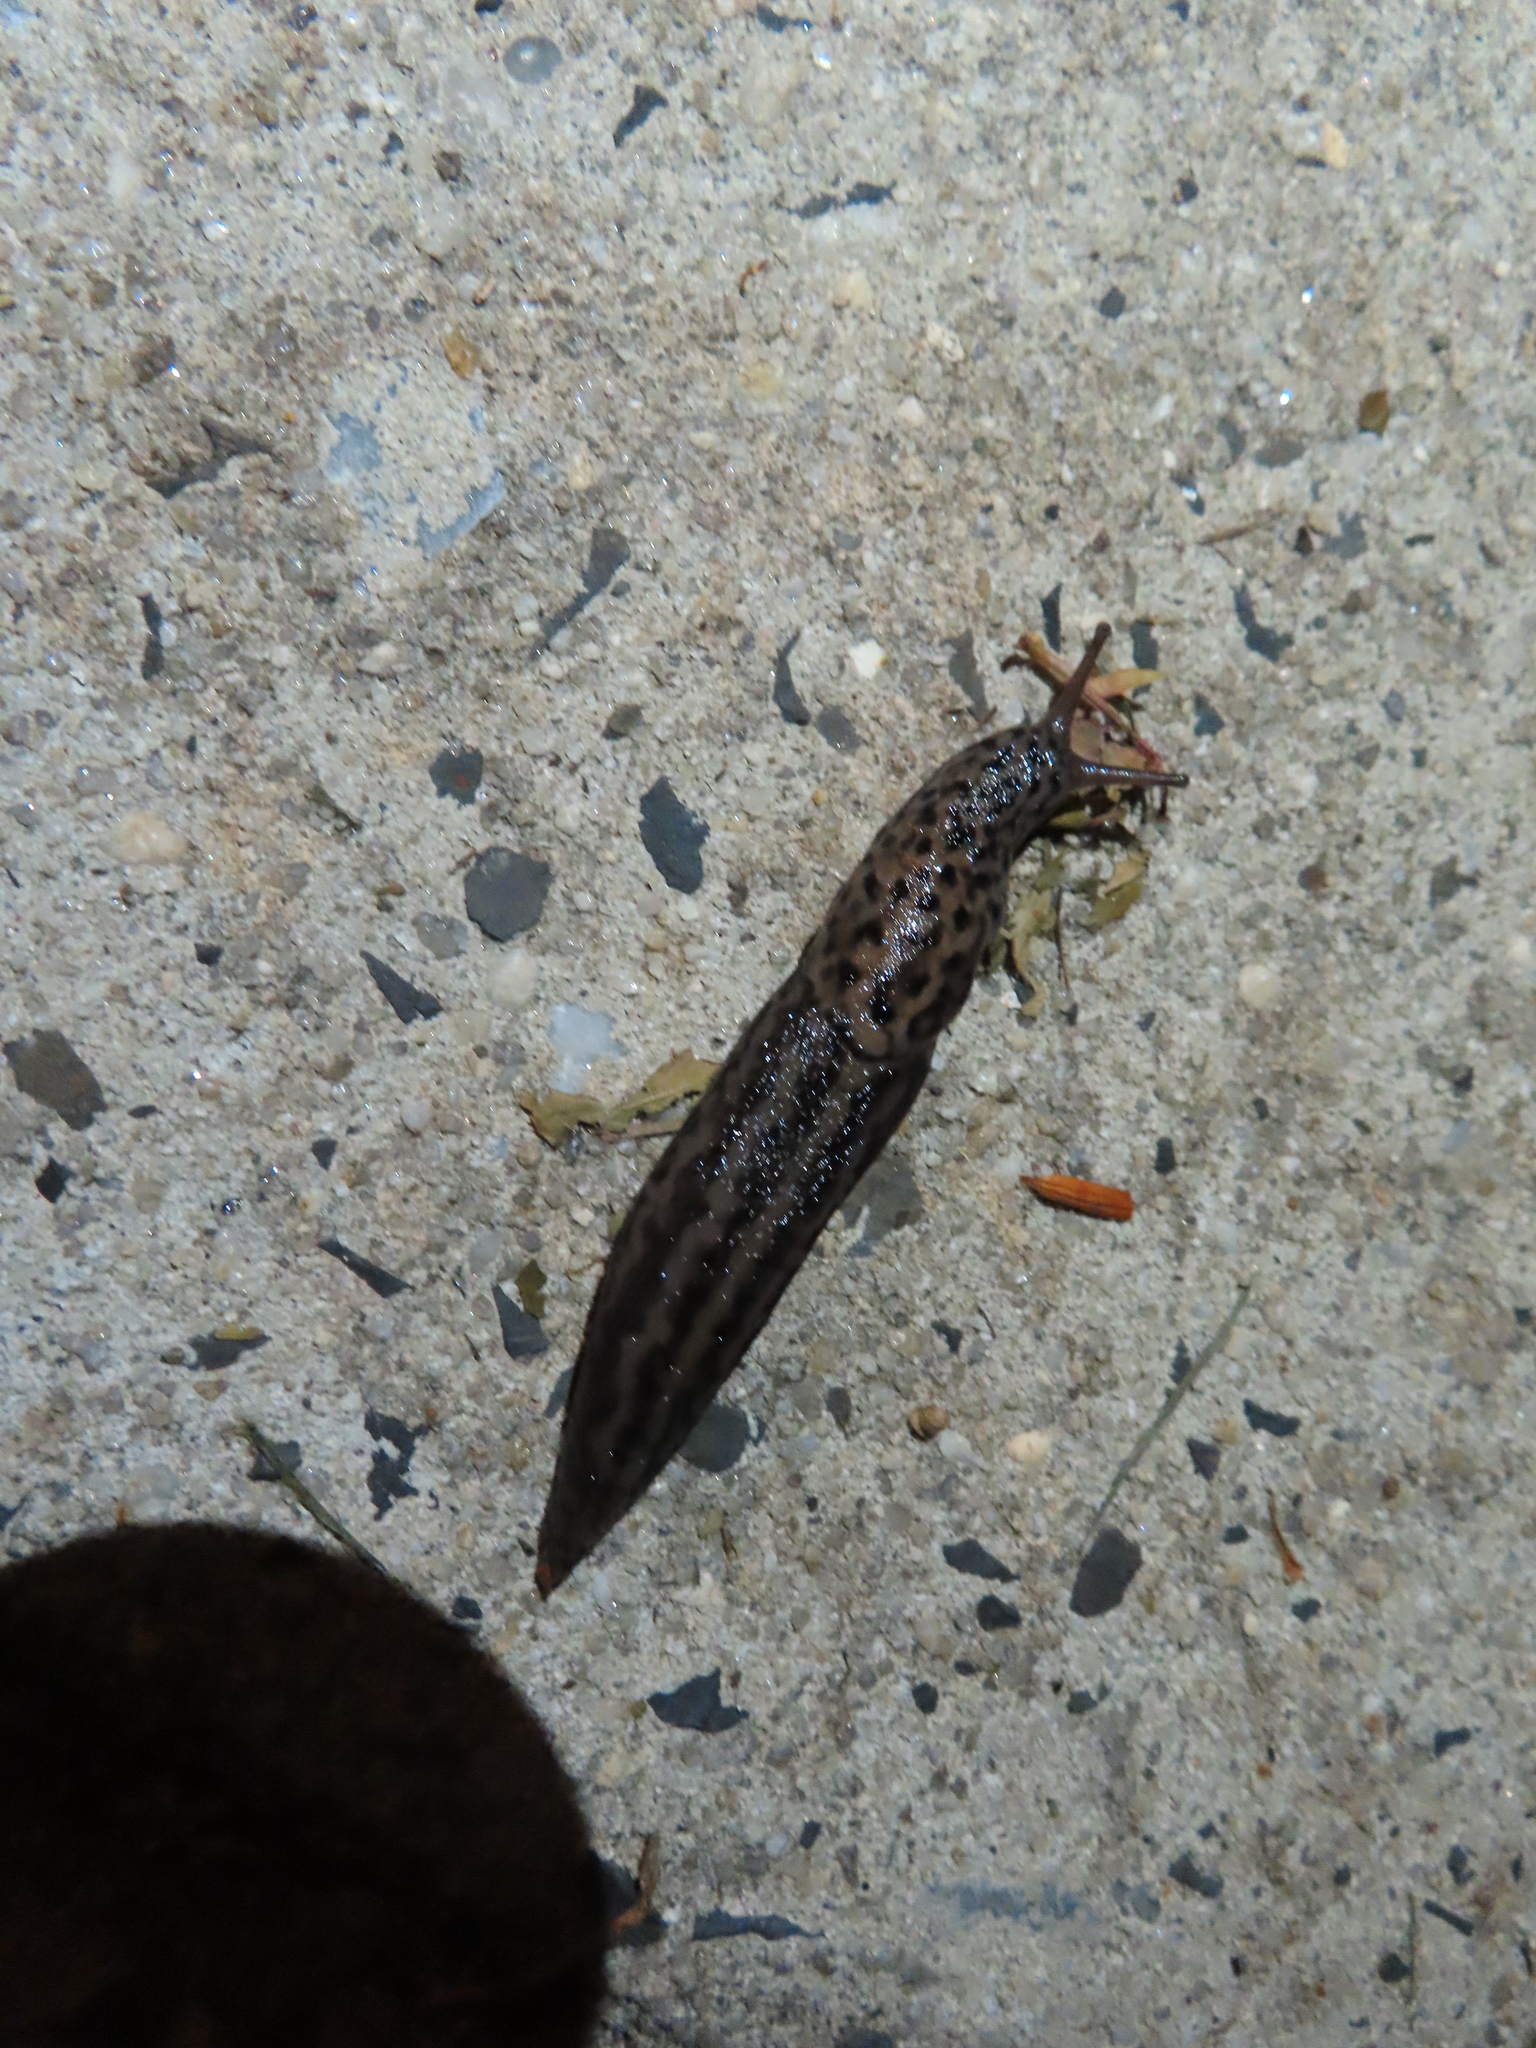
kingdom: Animalia
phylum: Mollusca
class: Gastropoda
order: Stylommatophora
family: Limacidae
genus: Limax
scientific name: Limax maximus
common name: Great grey slug
